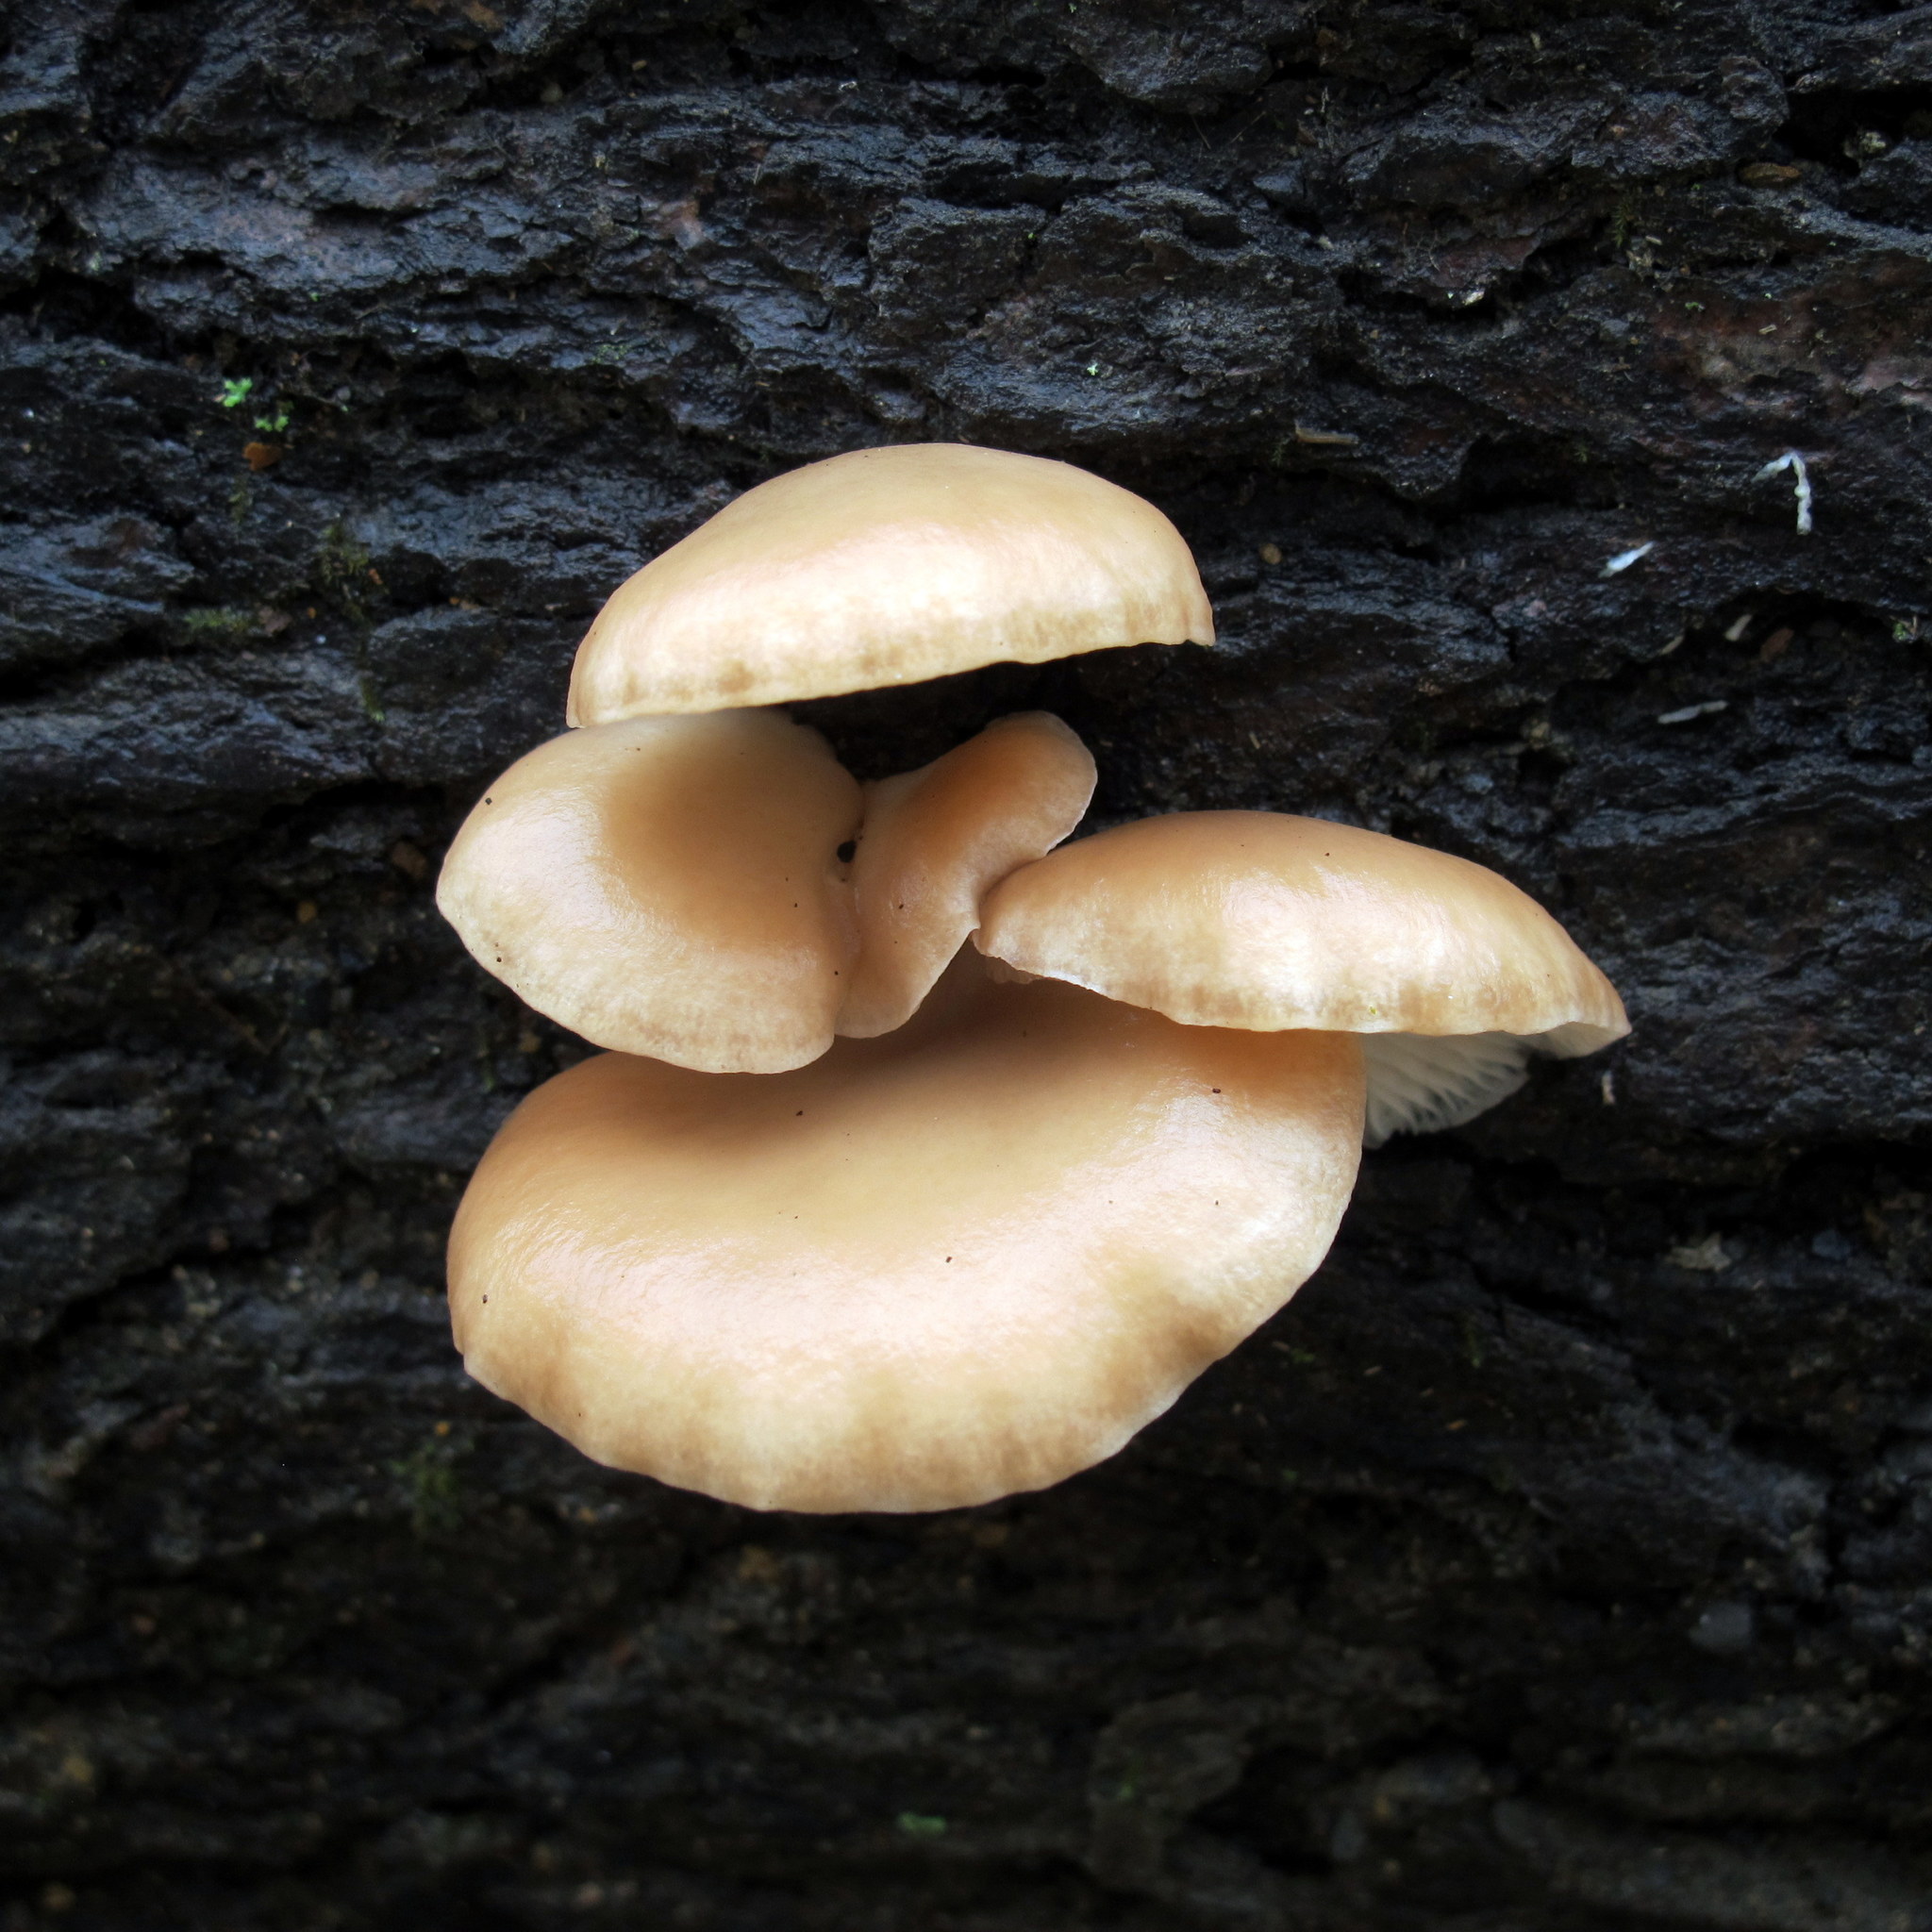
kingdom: Fungi
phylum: Basidiomycota
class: Agaricomycetes
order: Agaricales
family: Pleurotaceae
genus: Pleurotus
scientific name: Pleurotus ostreatus
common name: Oyster mushroom
